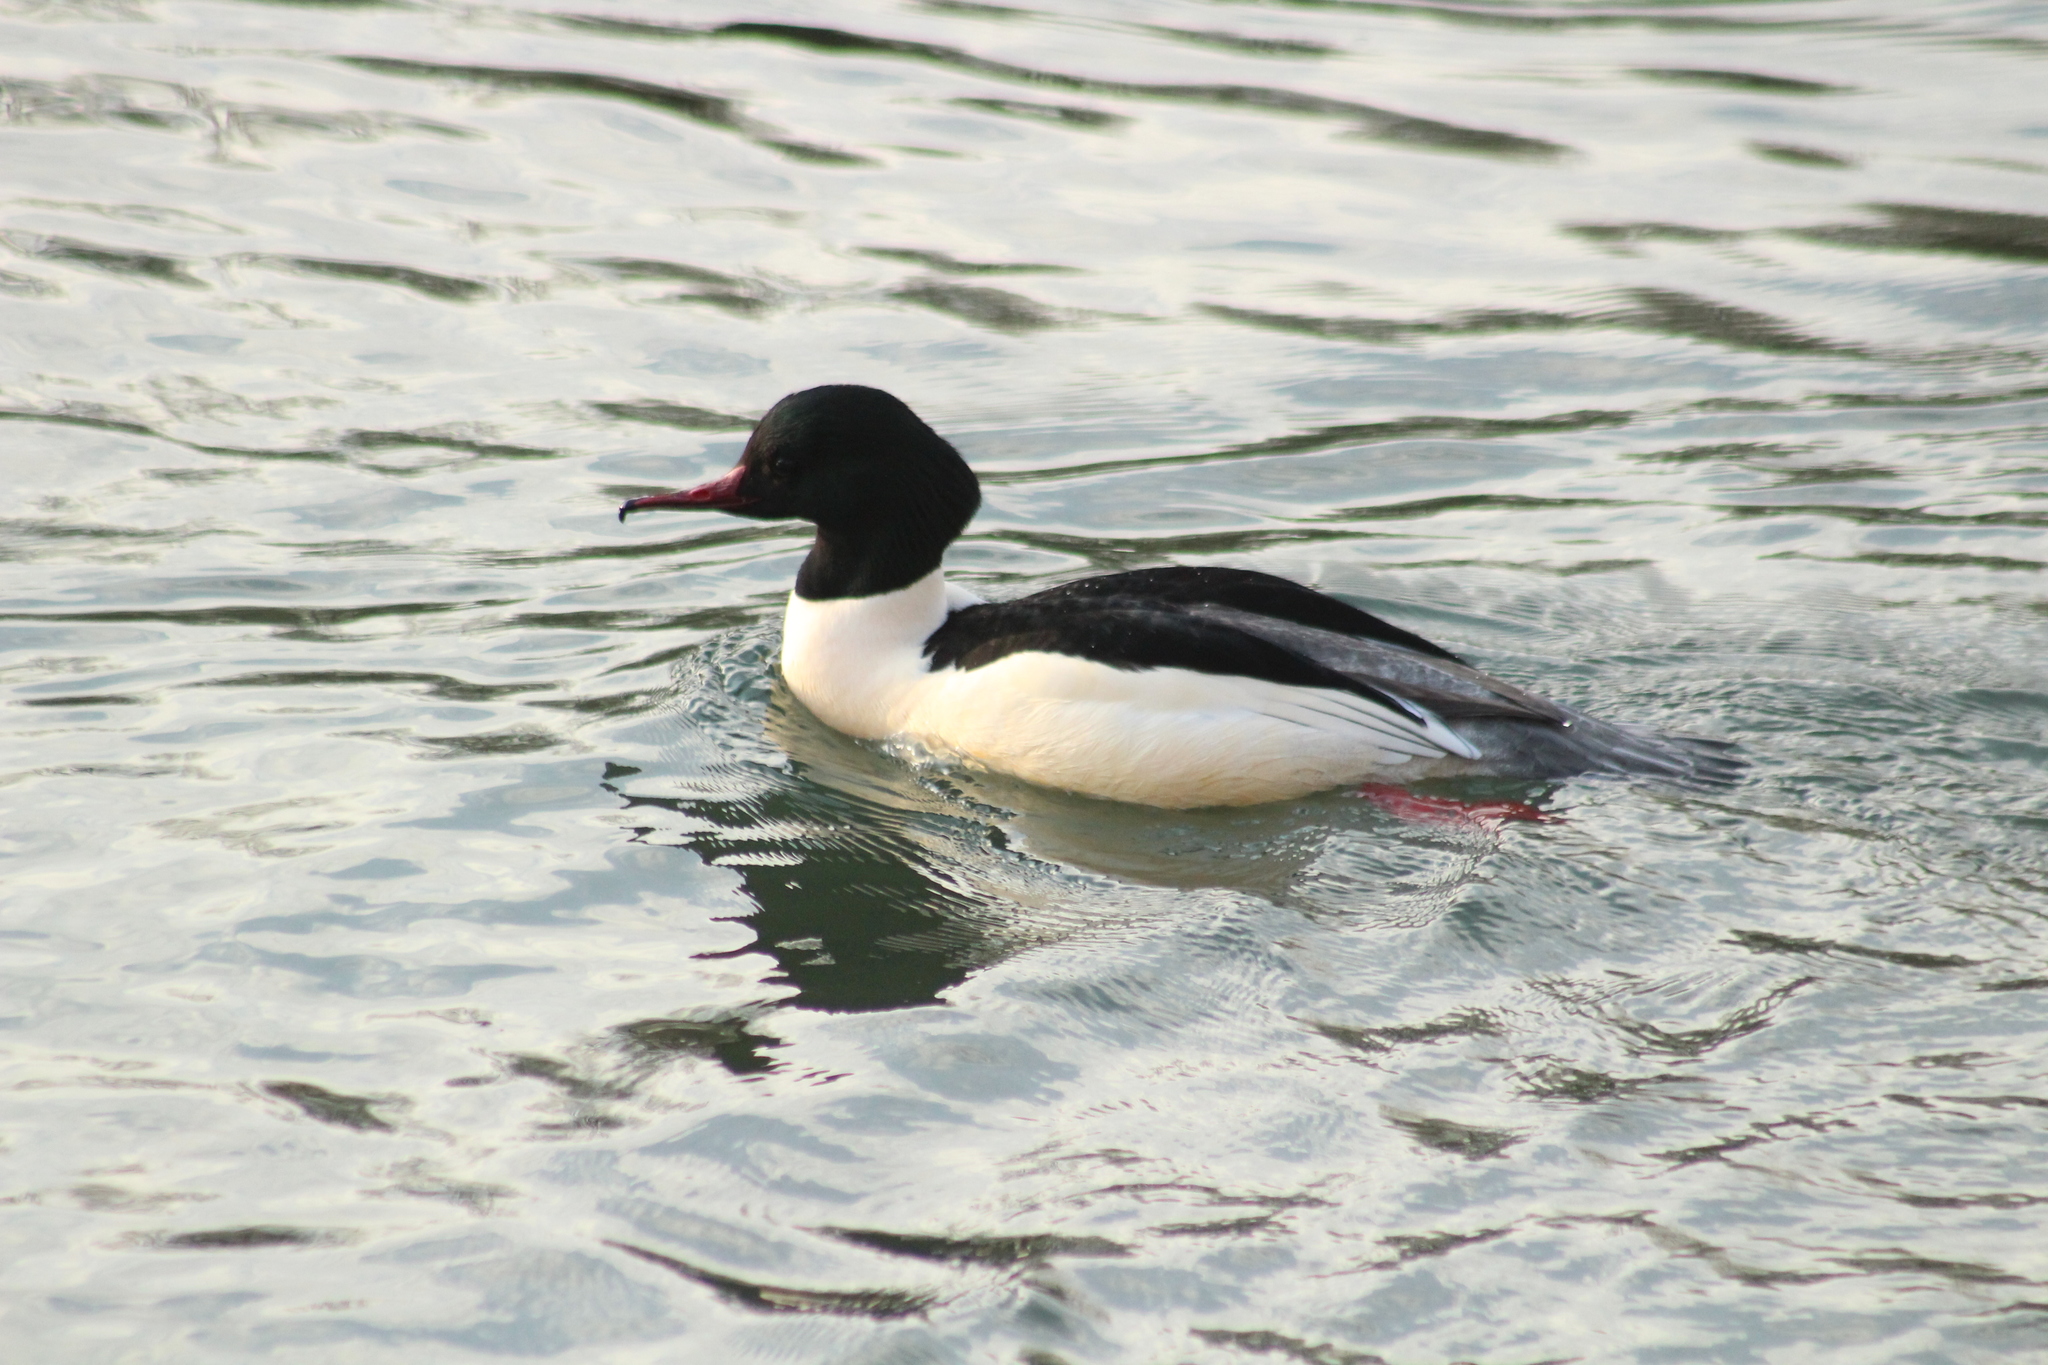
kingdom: Animalia
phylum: Chordata
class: Aves
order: Anseriformes
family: Anatidae
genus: Mergus
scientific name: Mergus merganser
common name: Common merganser
